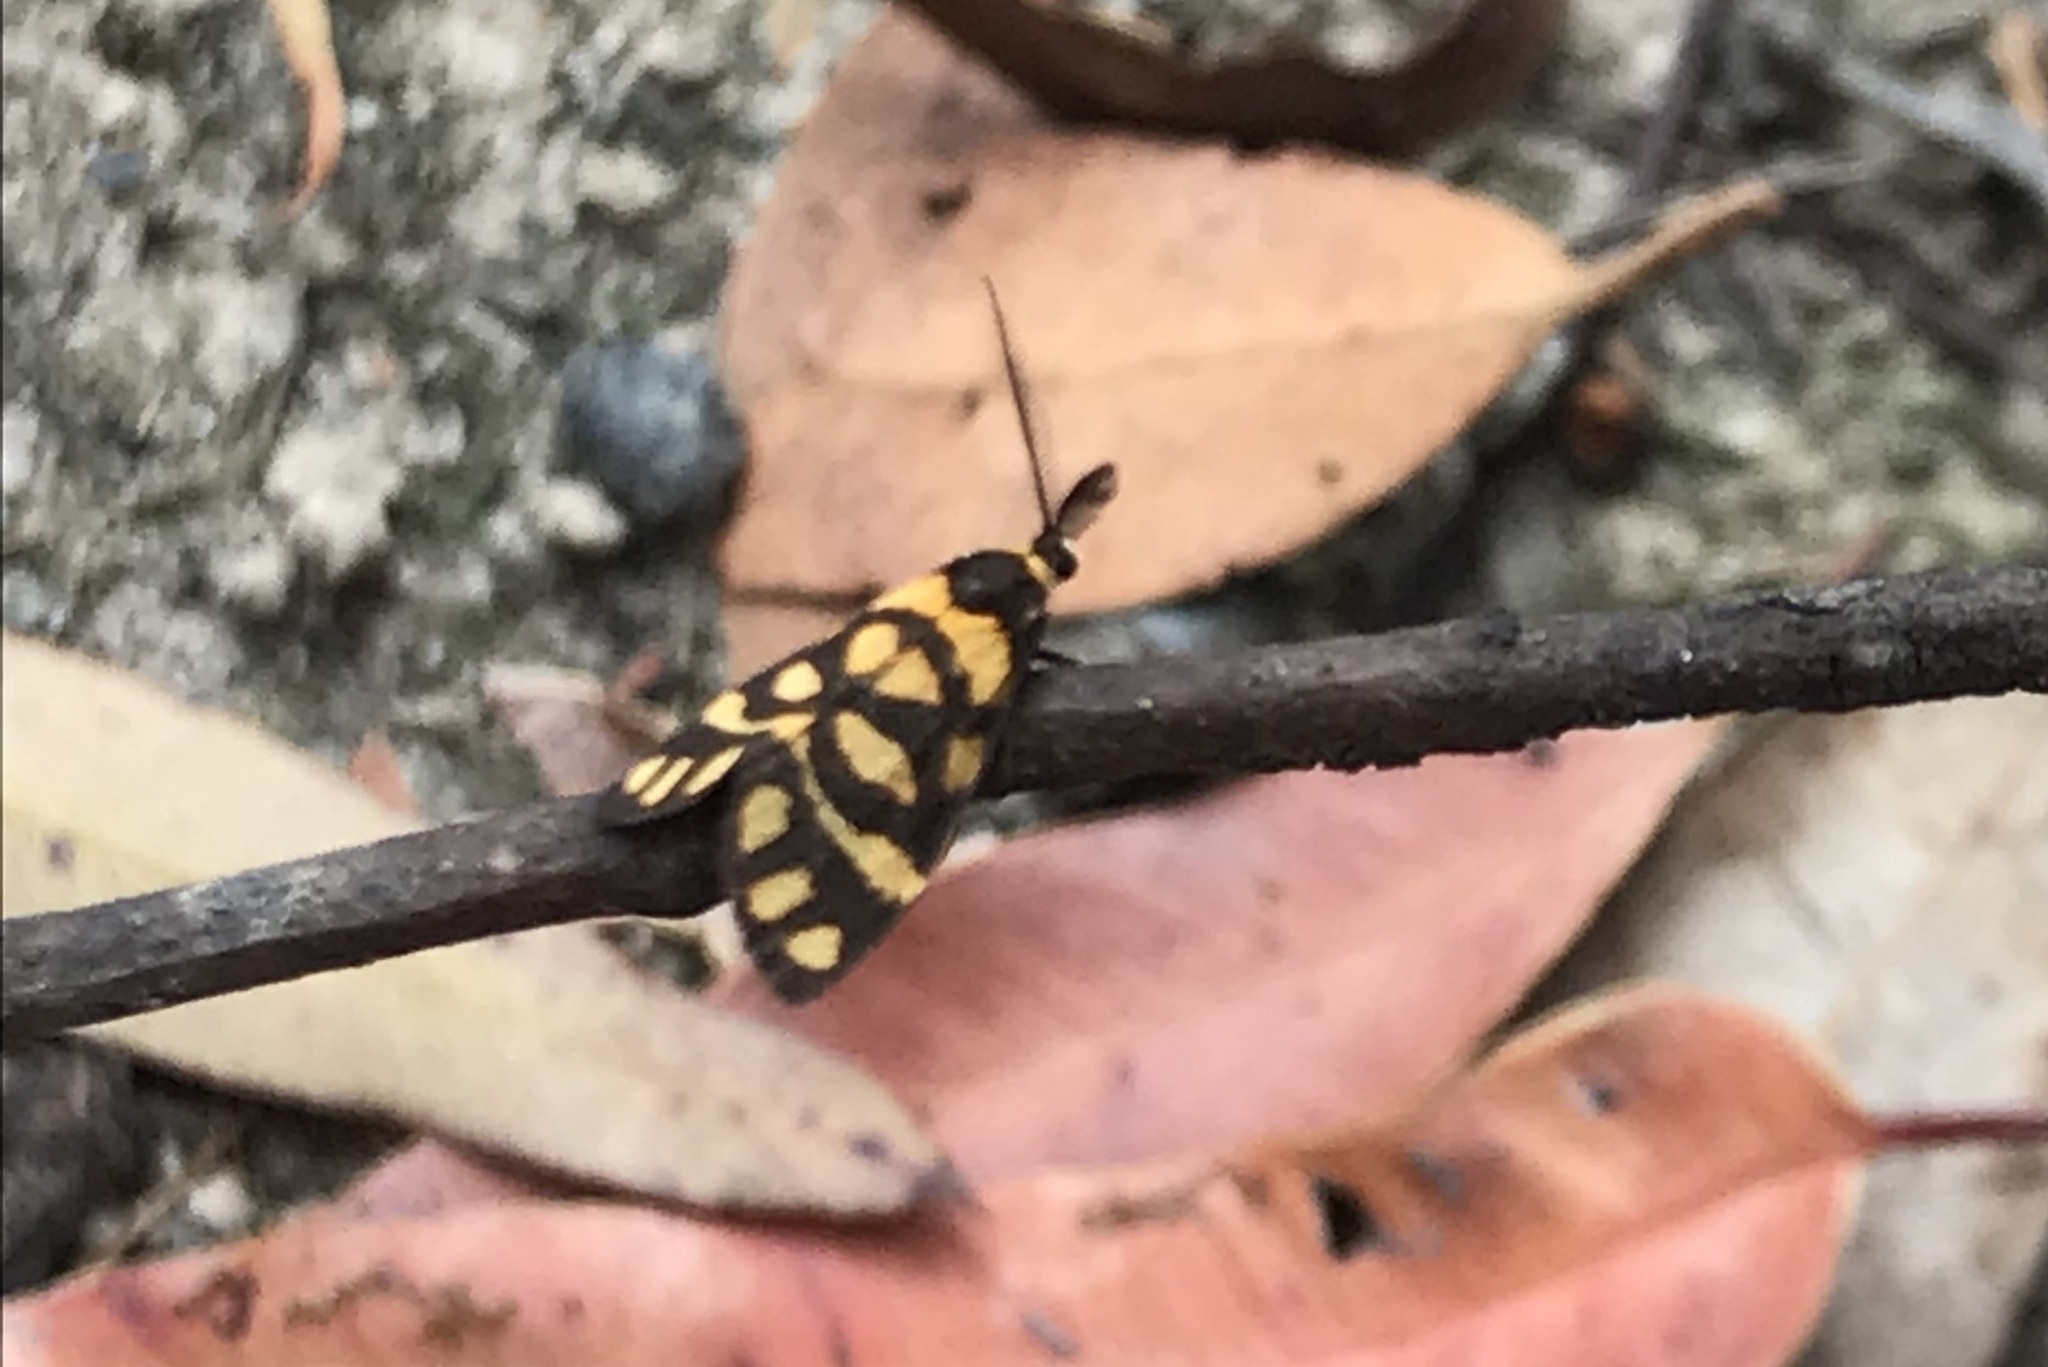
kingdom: Animalia
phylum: Arthropoda
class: Insecta
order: Lepidoptera
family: Erebidae
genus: Asura
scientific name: Asura lydia
